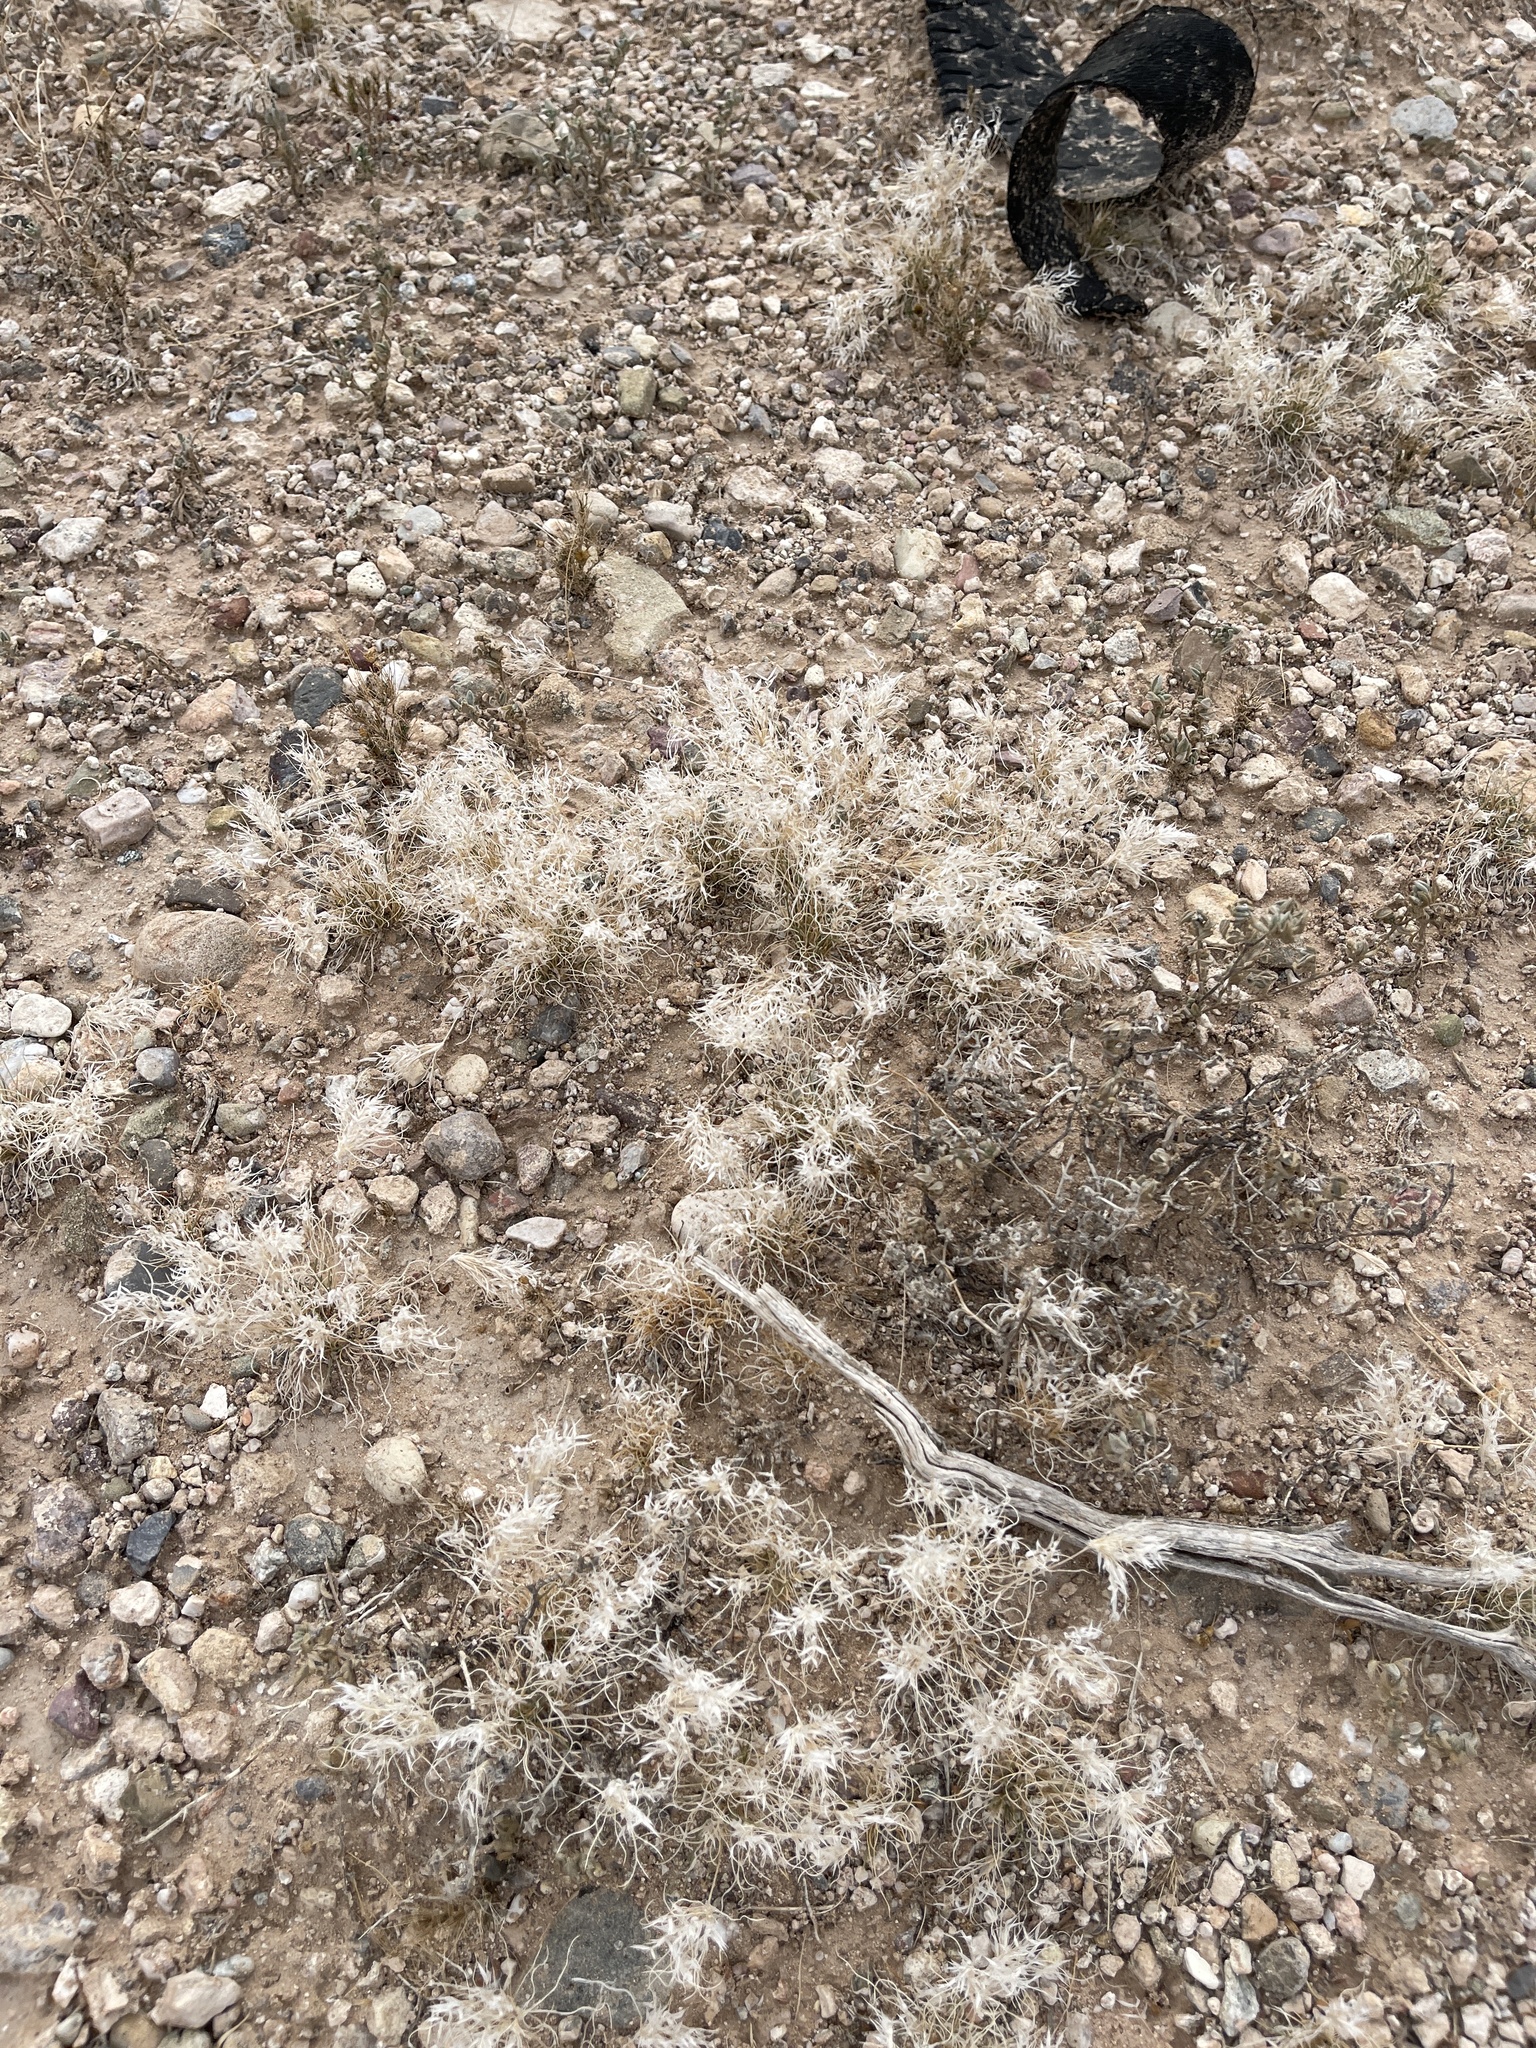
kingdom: Plantae
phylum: Tracheophyta
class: Liliopsida
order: Poales
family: Poaceae
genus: Dasyochloa
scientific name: Dasyochloa pulchella
